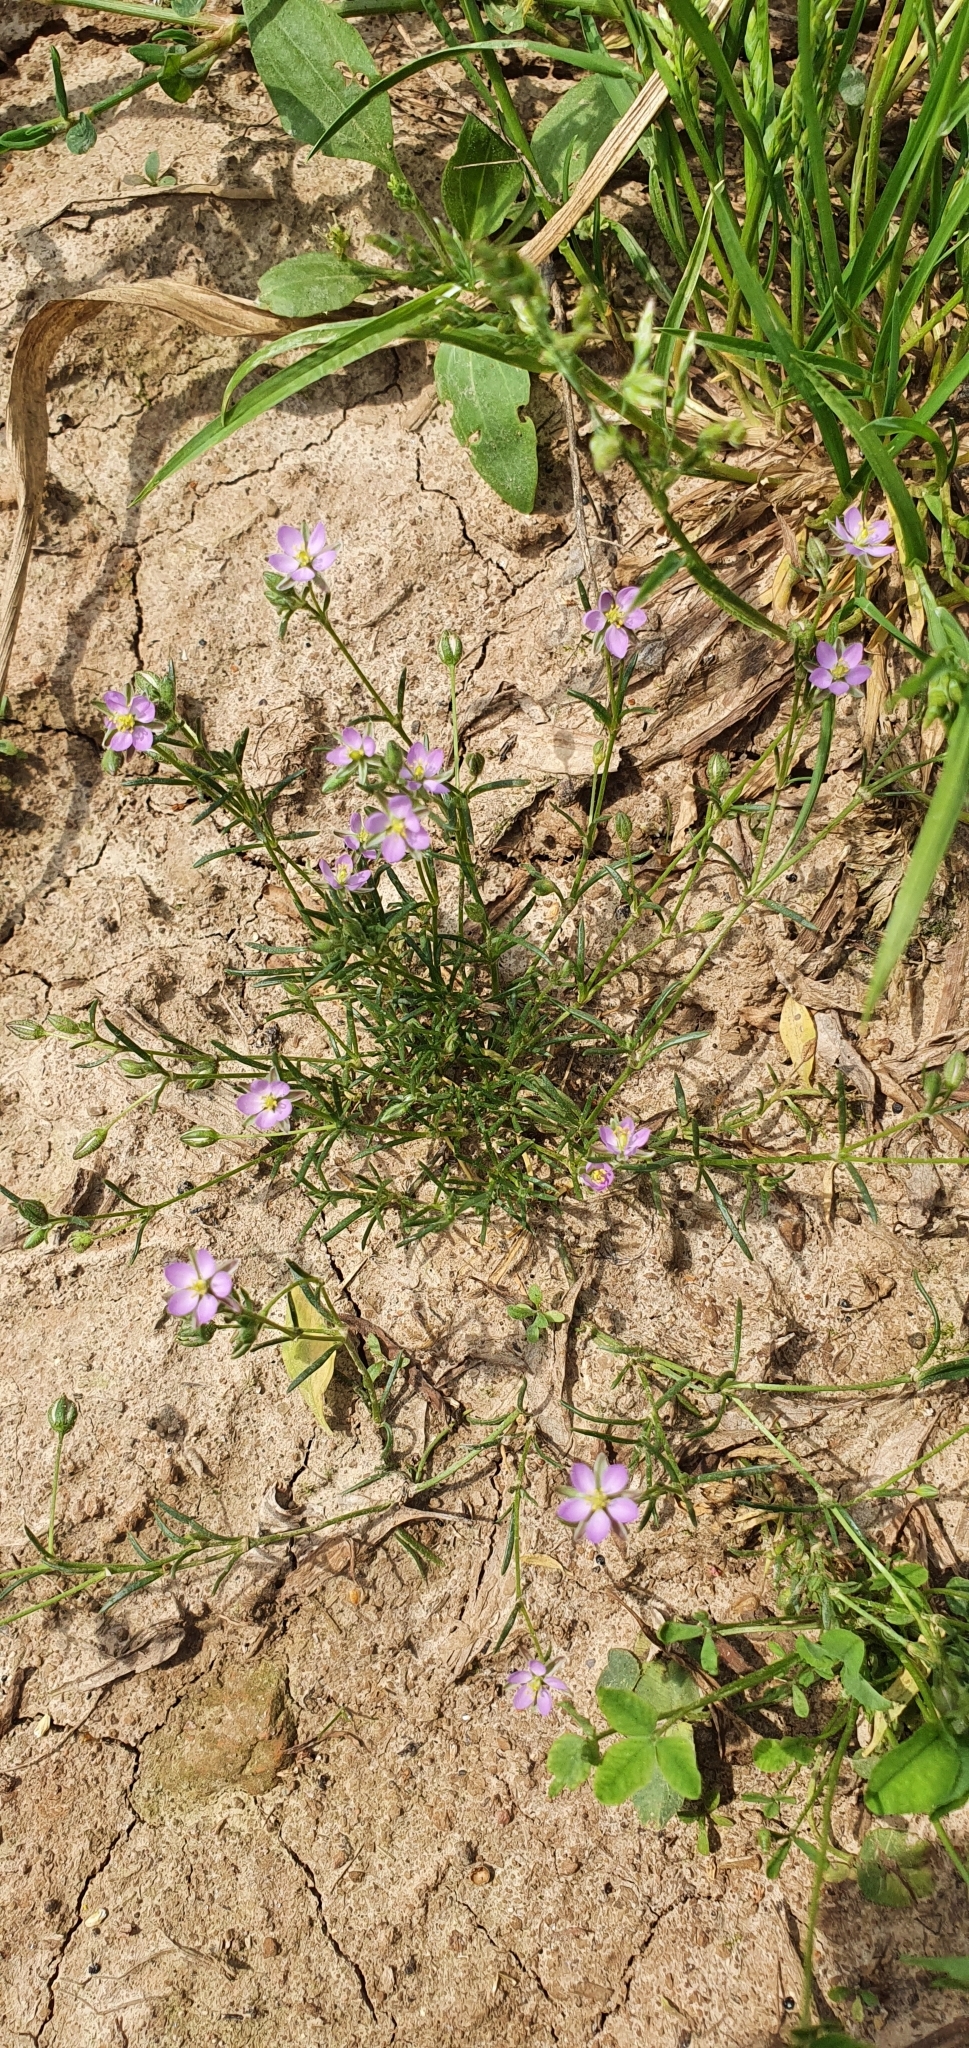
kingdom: Plantae
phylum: Tracheophyta
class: Magnoliopsida
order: Caryophyllales
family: Caryophyllaceae
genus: Spergularia
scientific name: Spergularia rubra
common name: Red sand-spurrey
